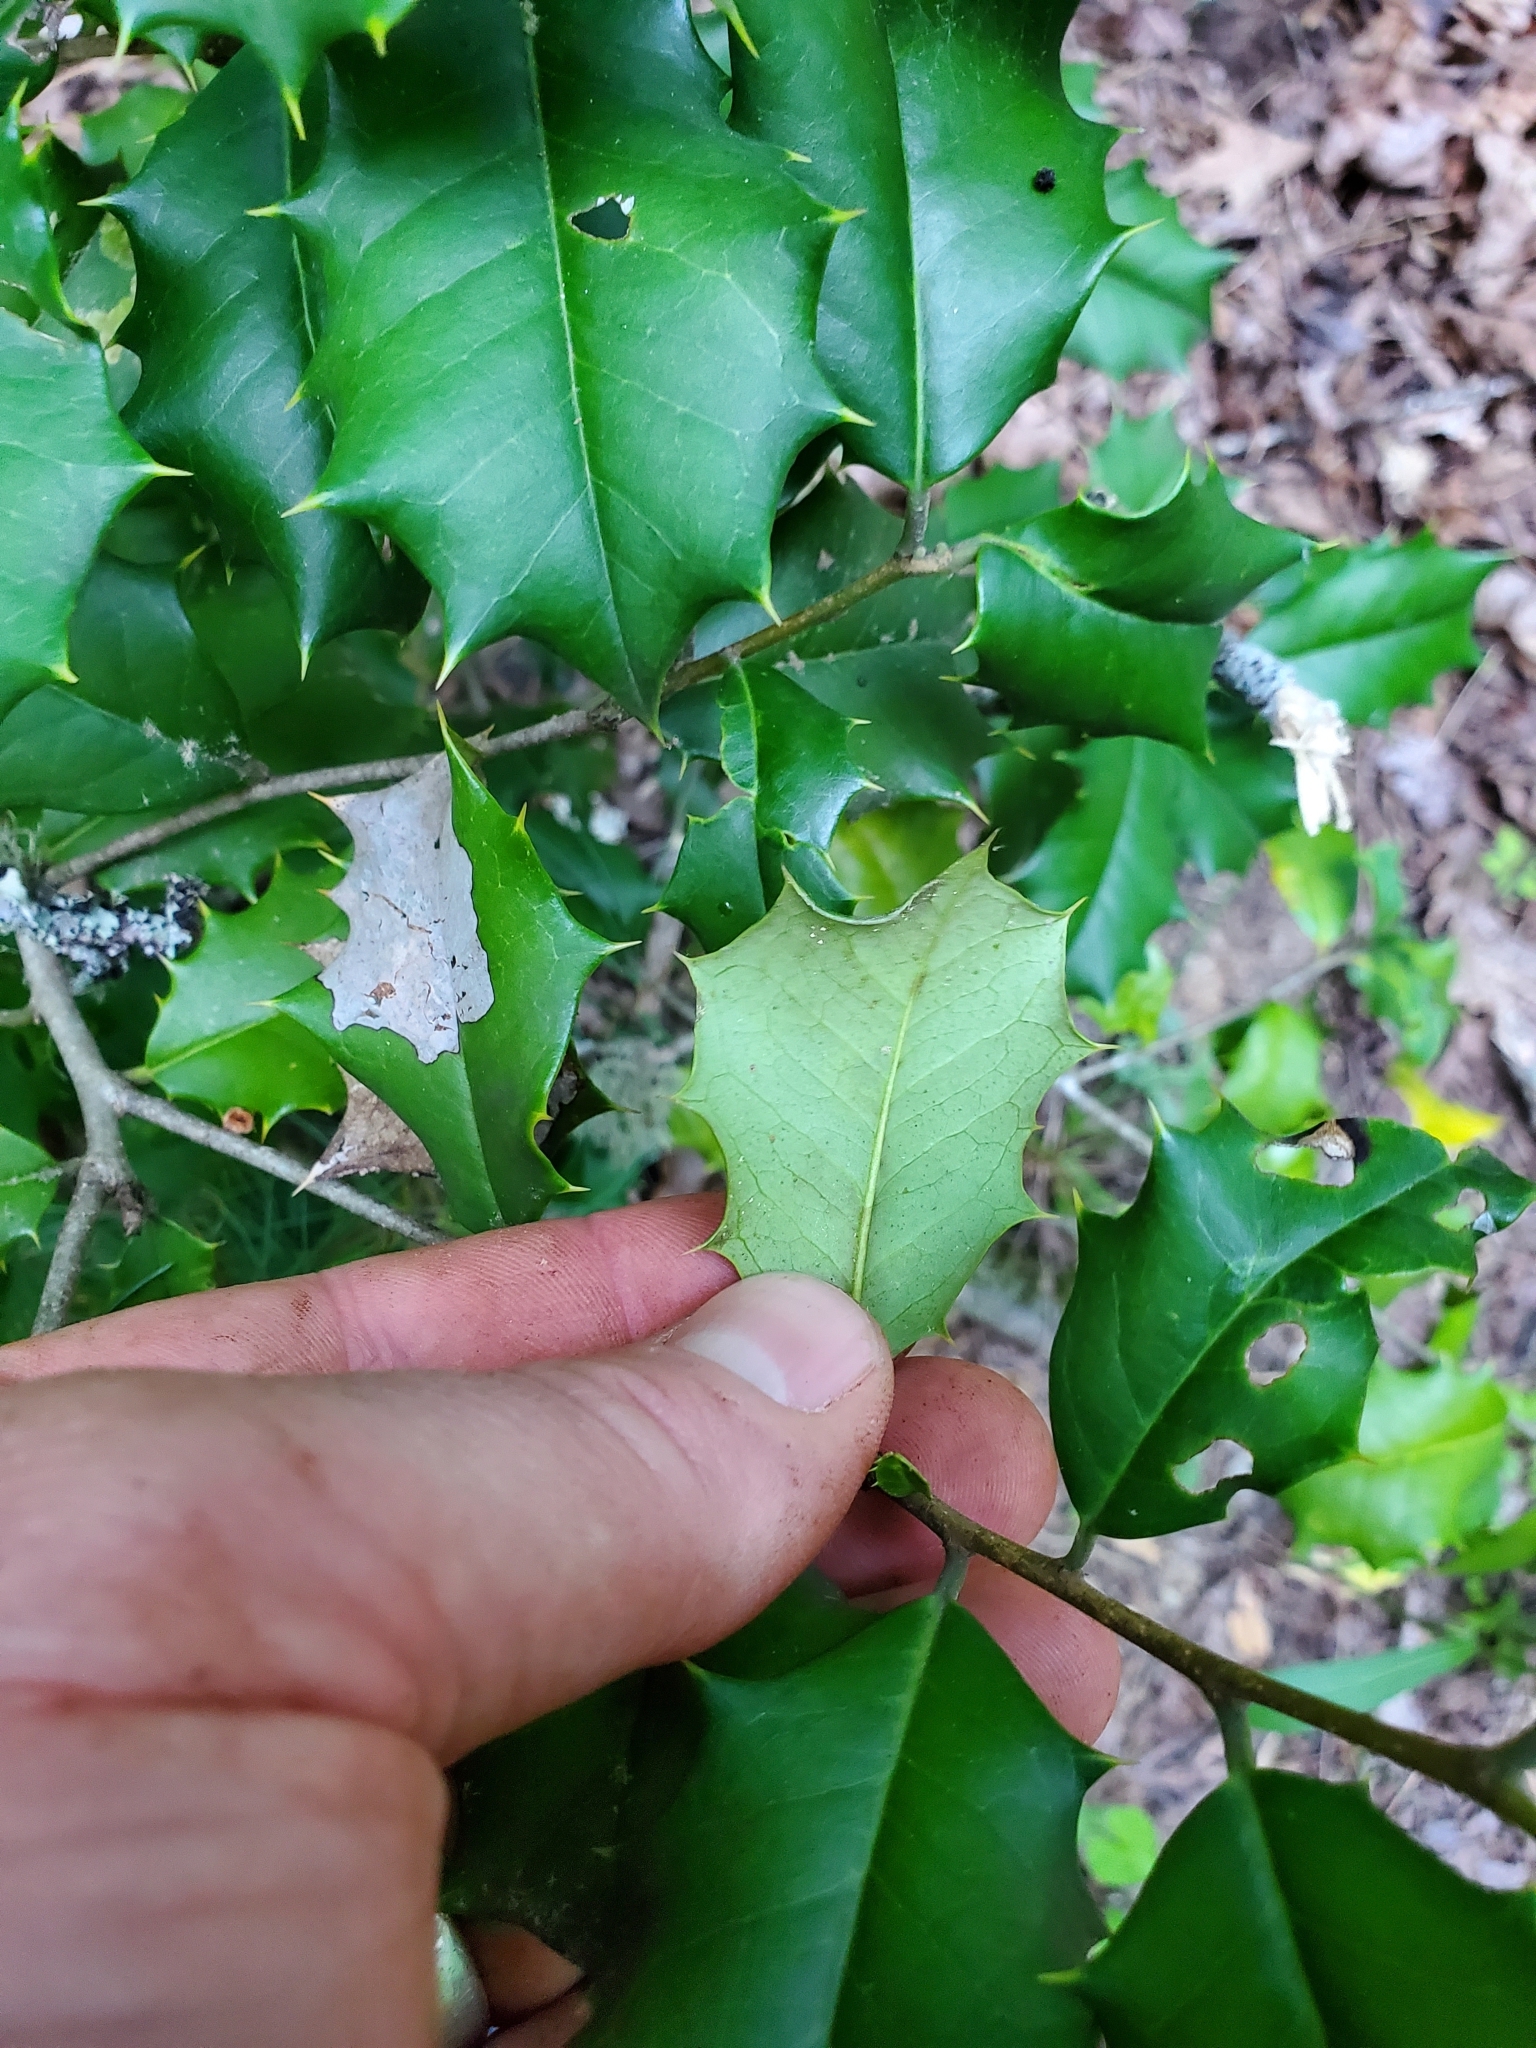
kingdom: Animalia
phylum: Arthropoda
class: Insecta
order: Diptera
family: Agromyzidae
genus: Phytomyza
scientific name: Phytomyza ilicicola
